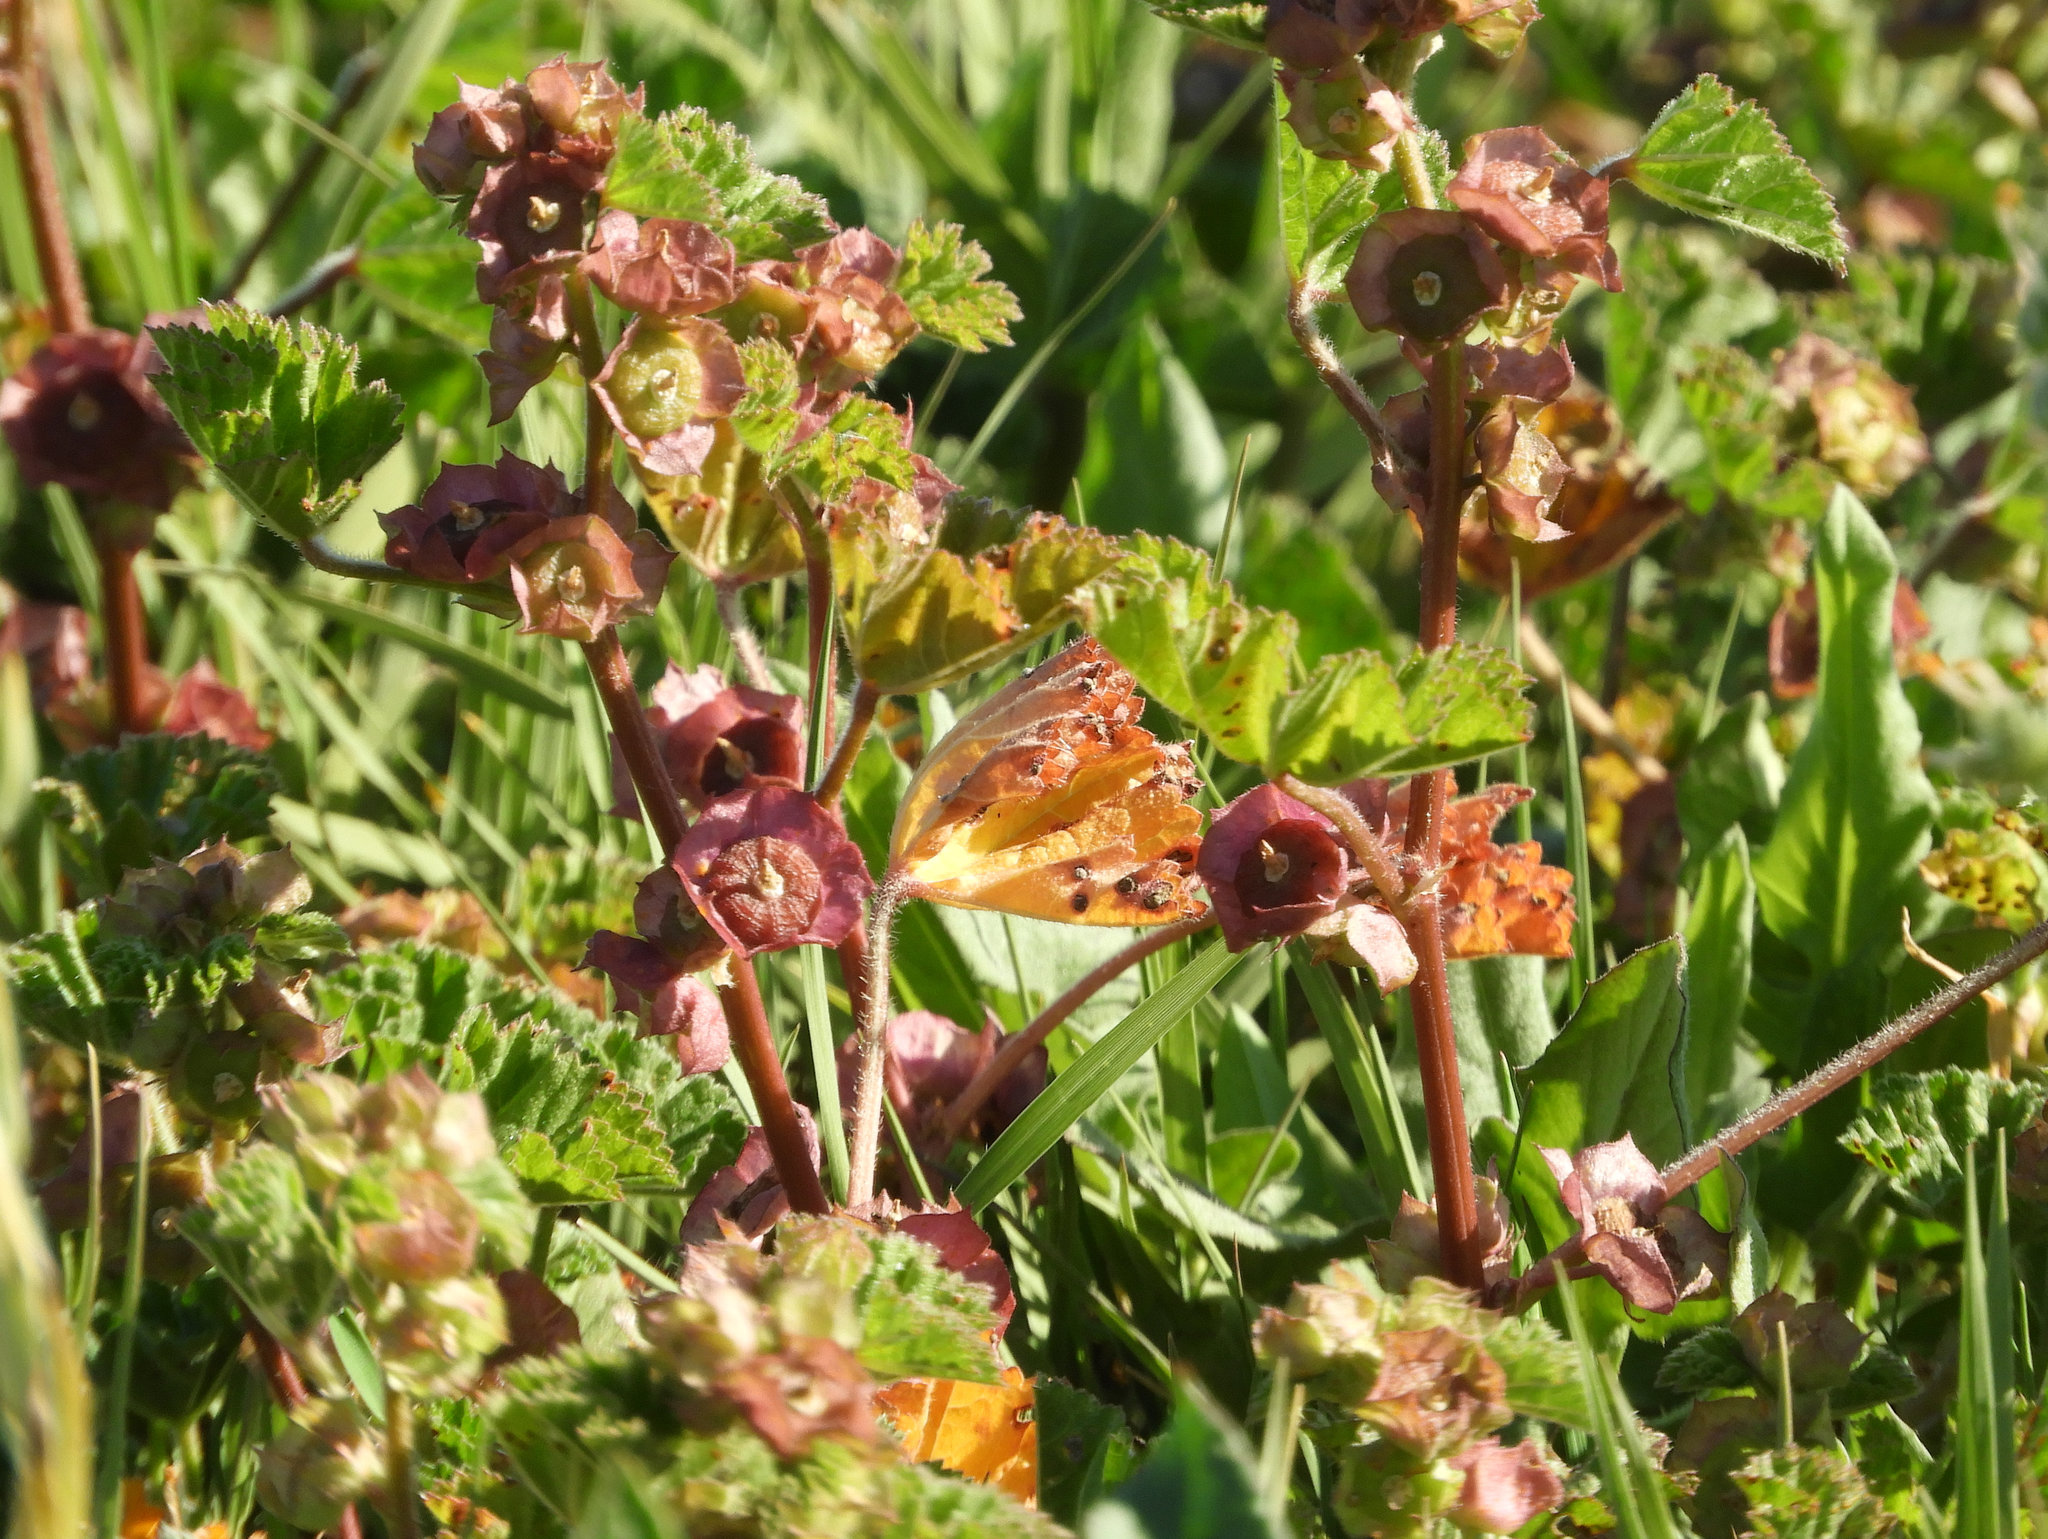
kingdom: Plantae
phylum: Tracheophyta
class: Magnoliopsida
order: Malvales
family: Malvaceae
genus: Malva
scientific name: Malva parviflora
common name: Least mallow
